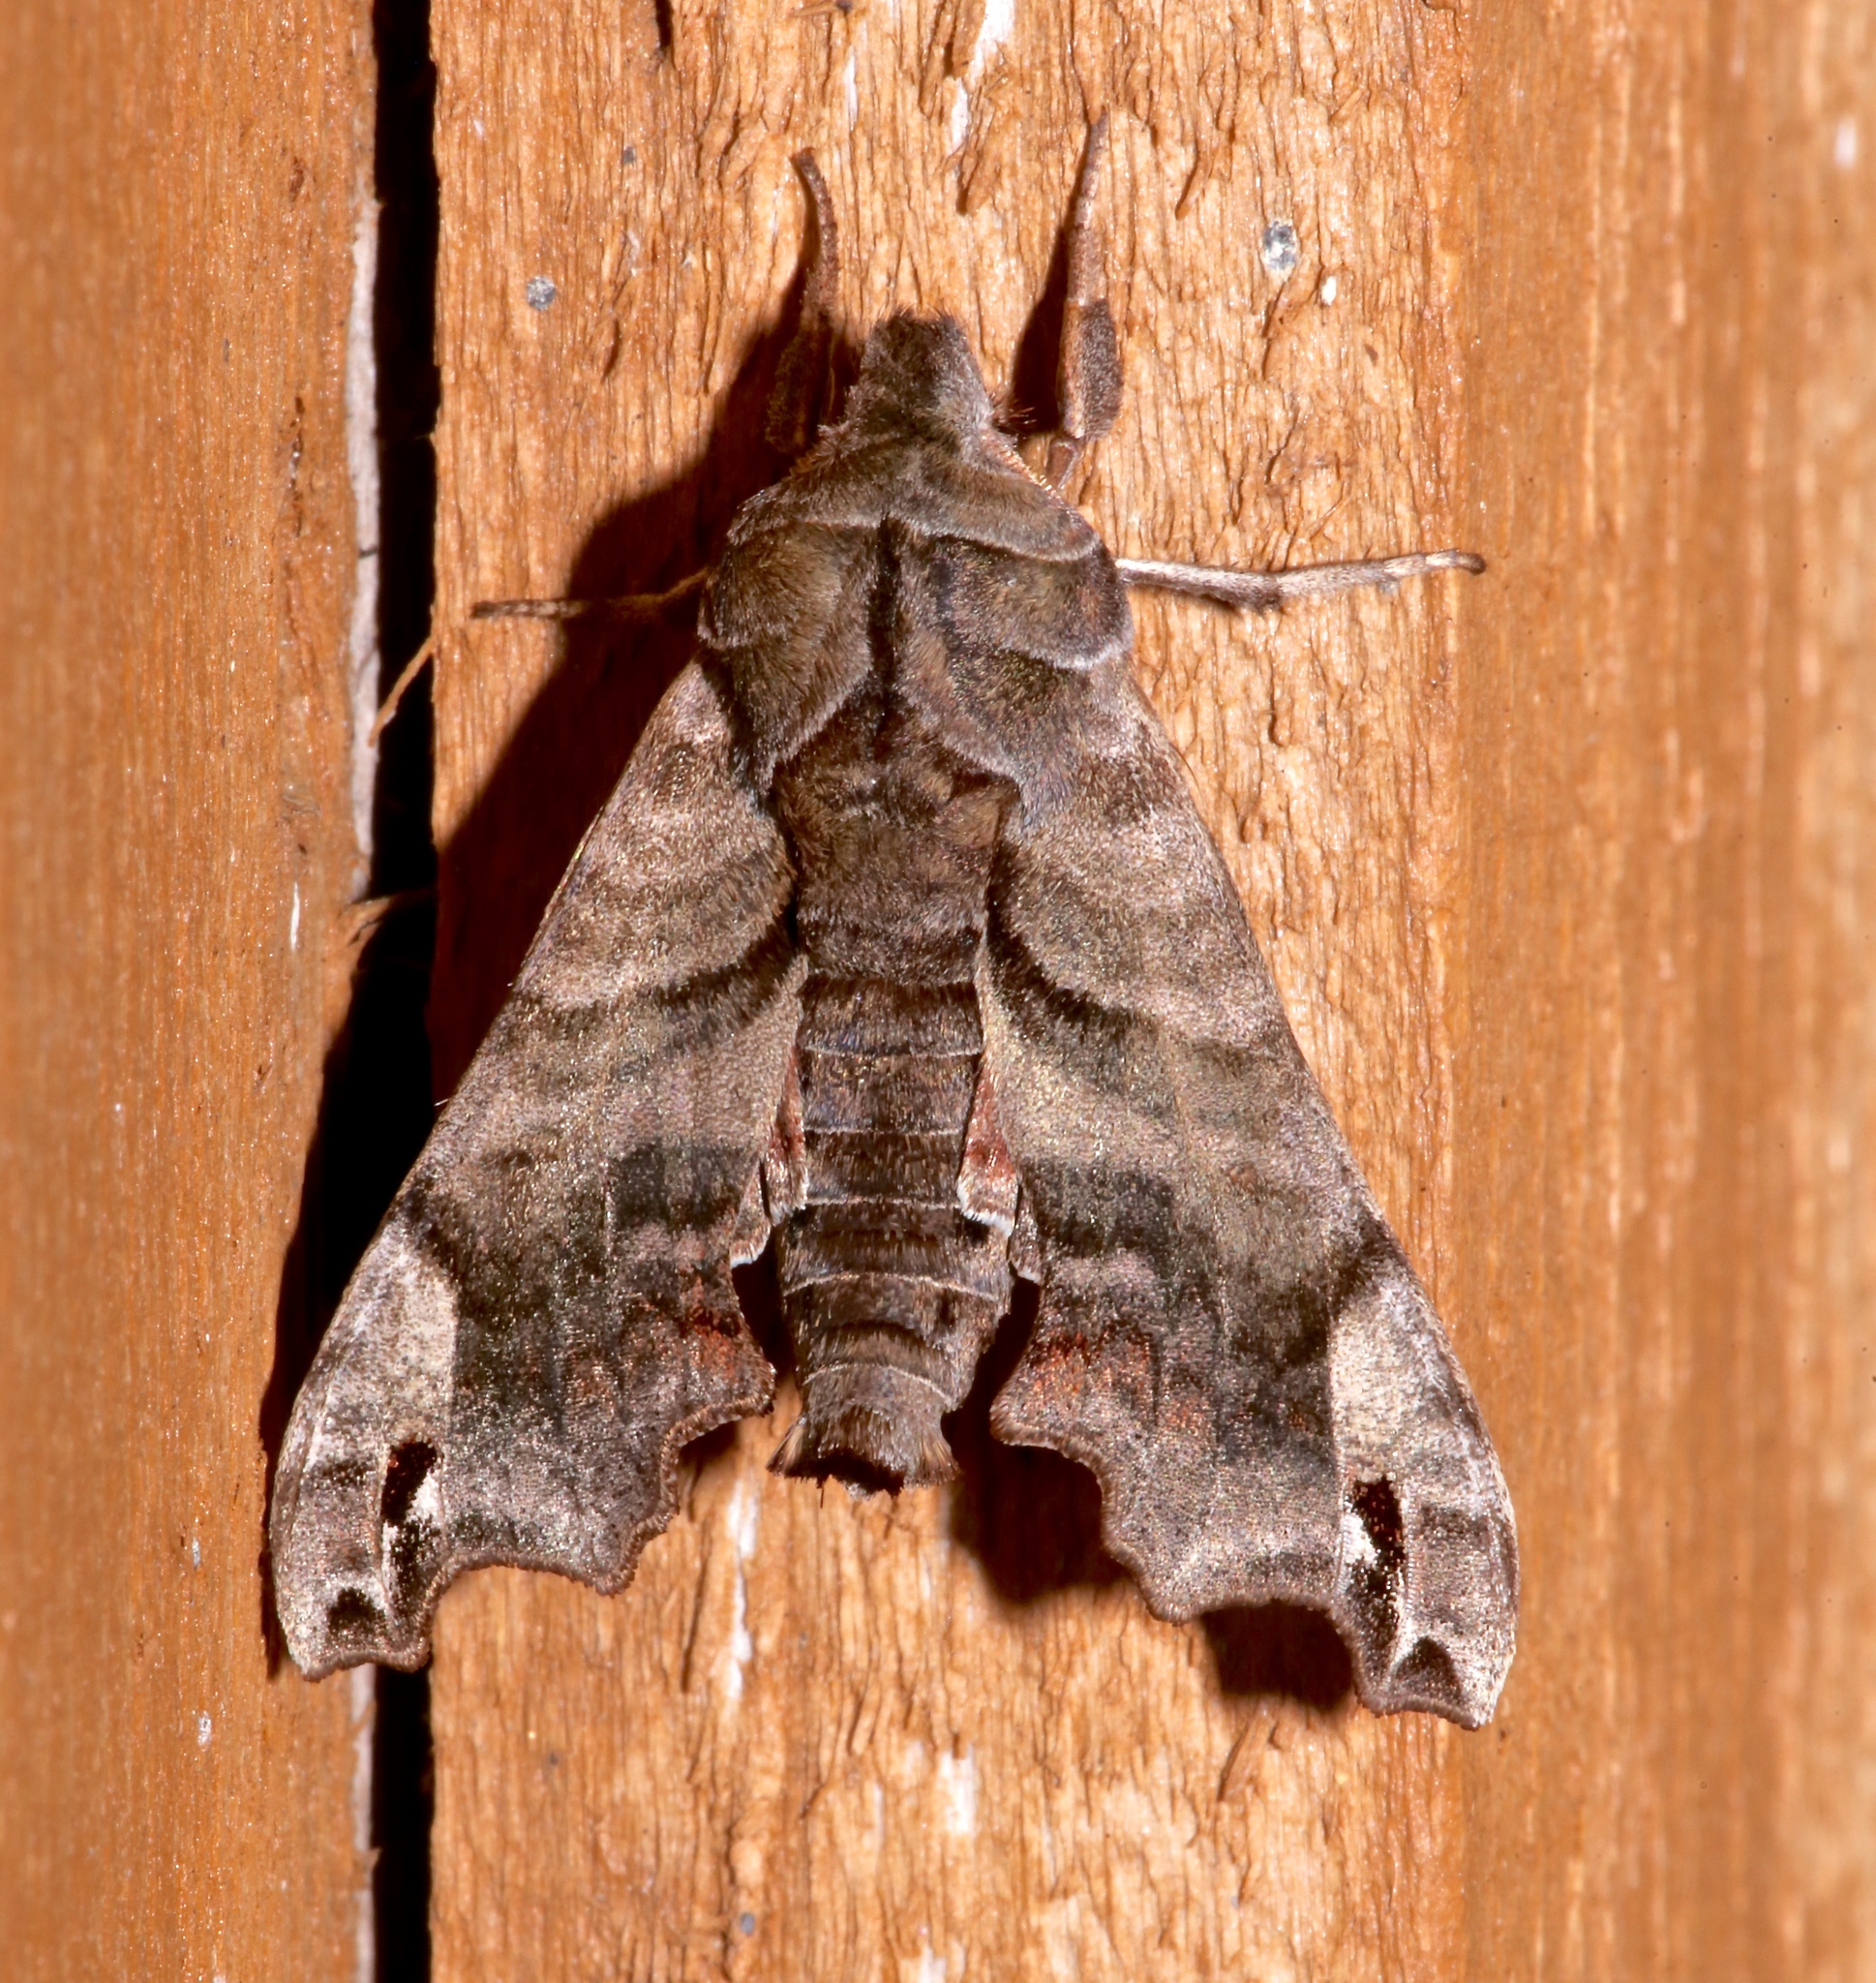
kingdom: Animalia
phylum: Arthropoda
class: Insecta
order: Lepidoptera
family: Sphingidae
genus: Deidamia
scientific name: Deidamia inscriptum
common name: Lettered sphinx
